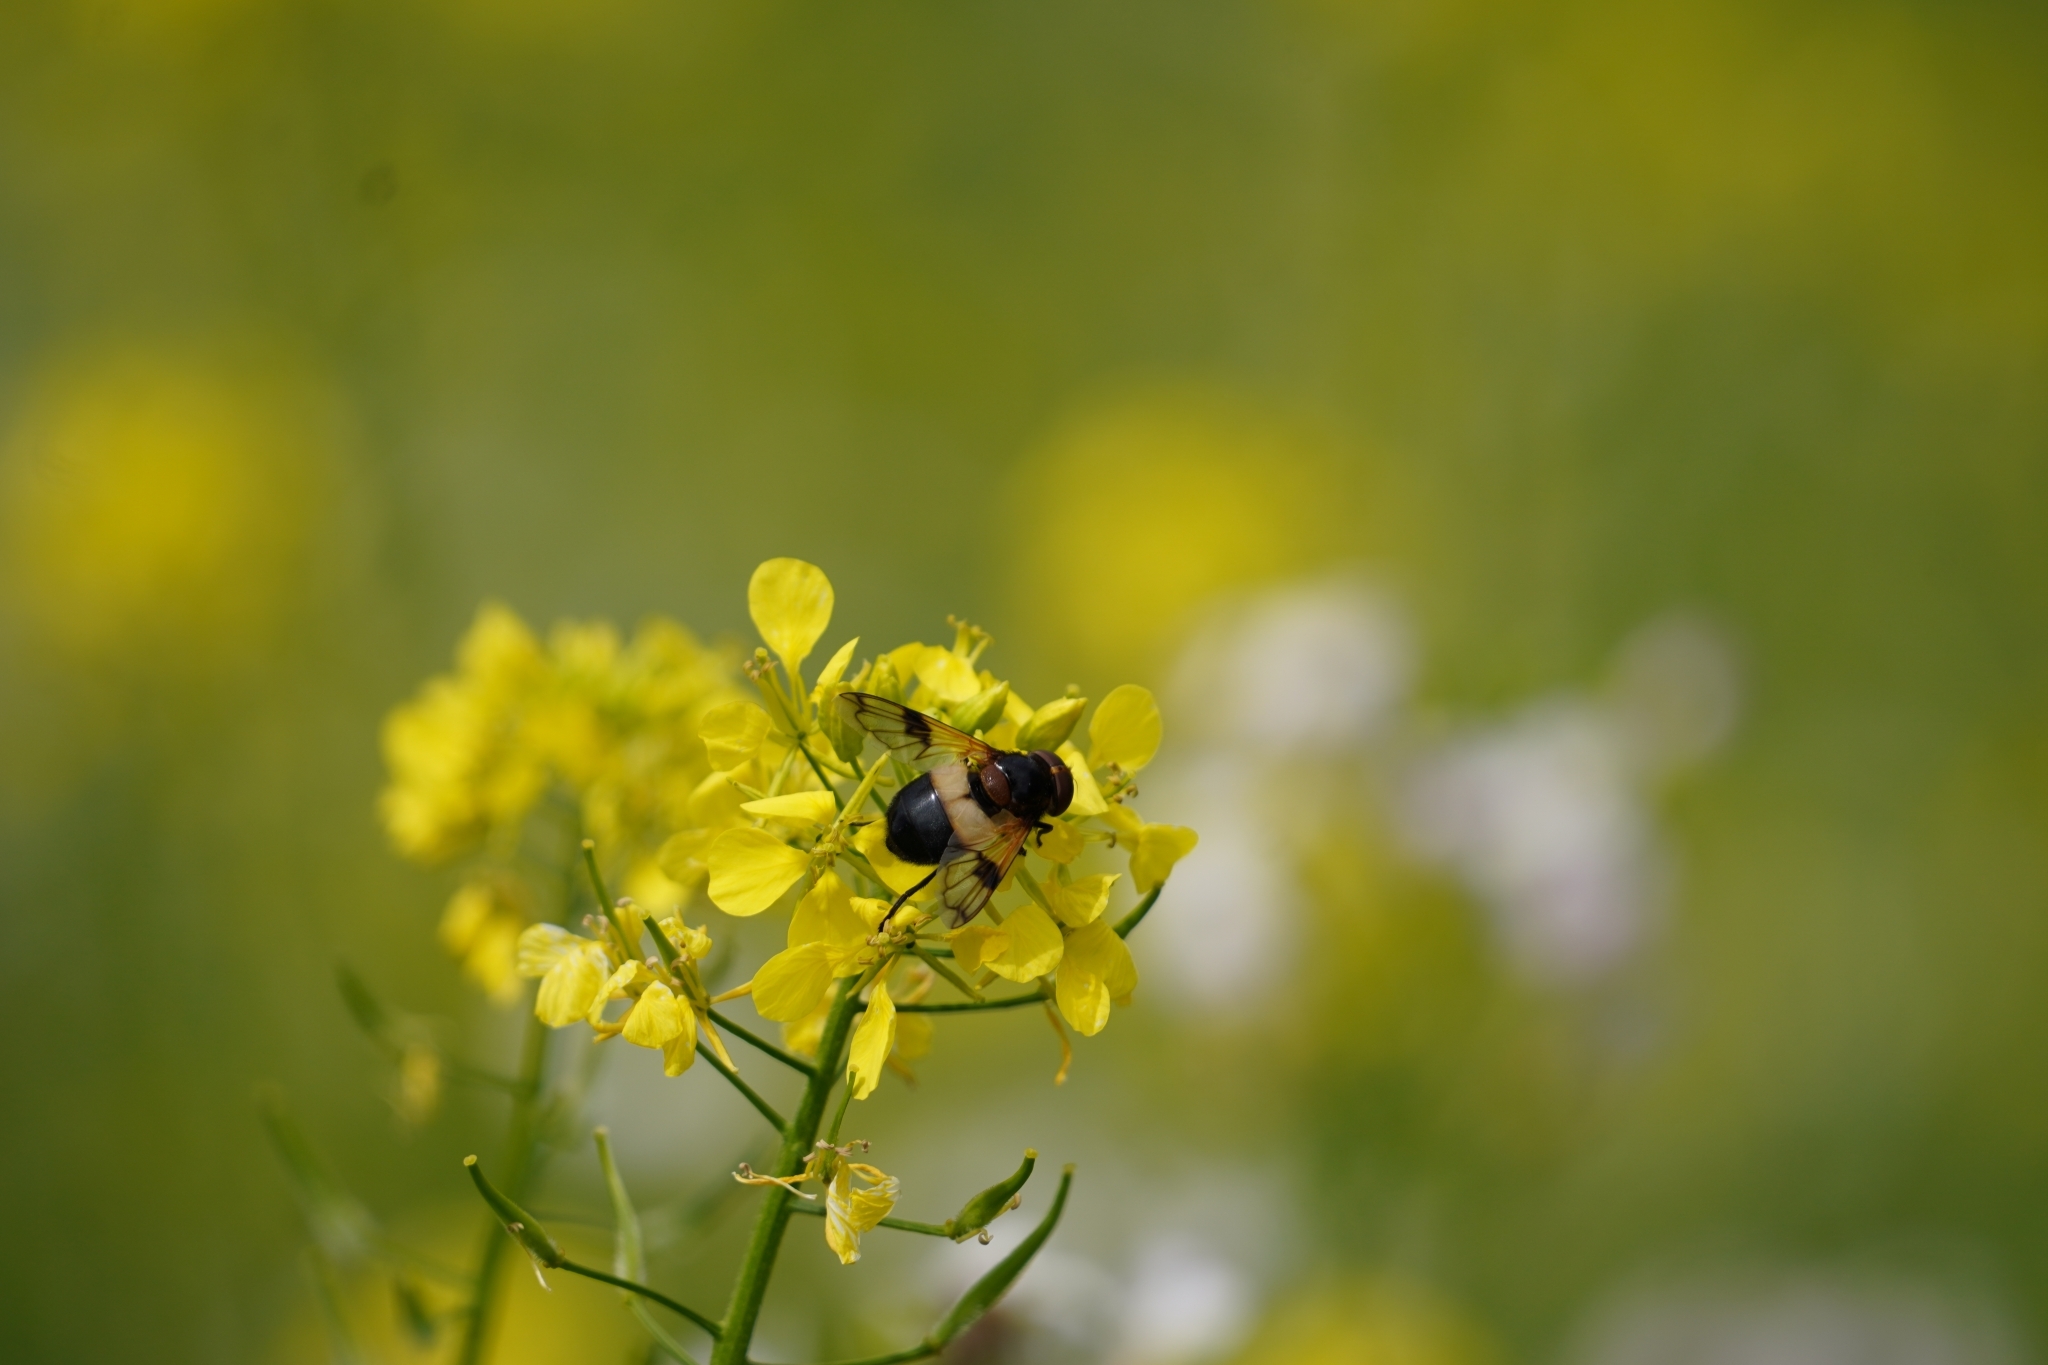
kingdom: Animalia
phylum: Arthropoda
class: Insecta
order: Diptera
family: Syrphidae
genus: Volucella
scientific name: Volucella pellucens
